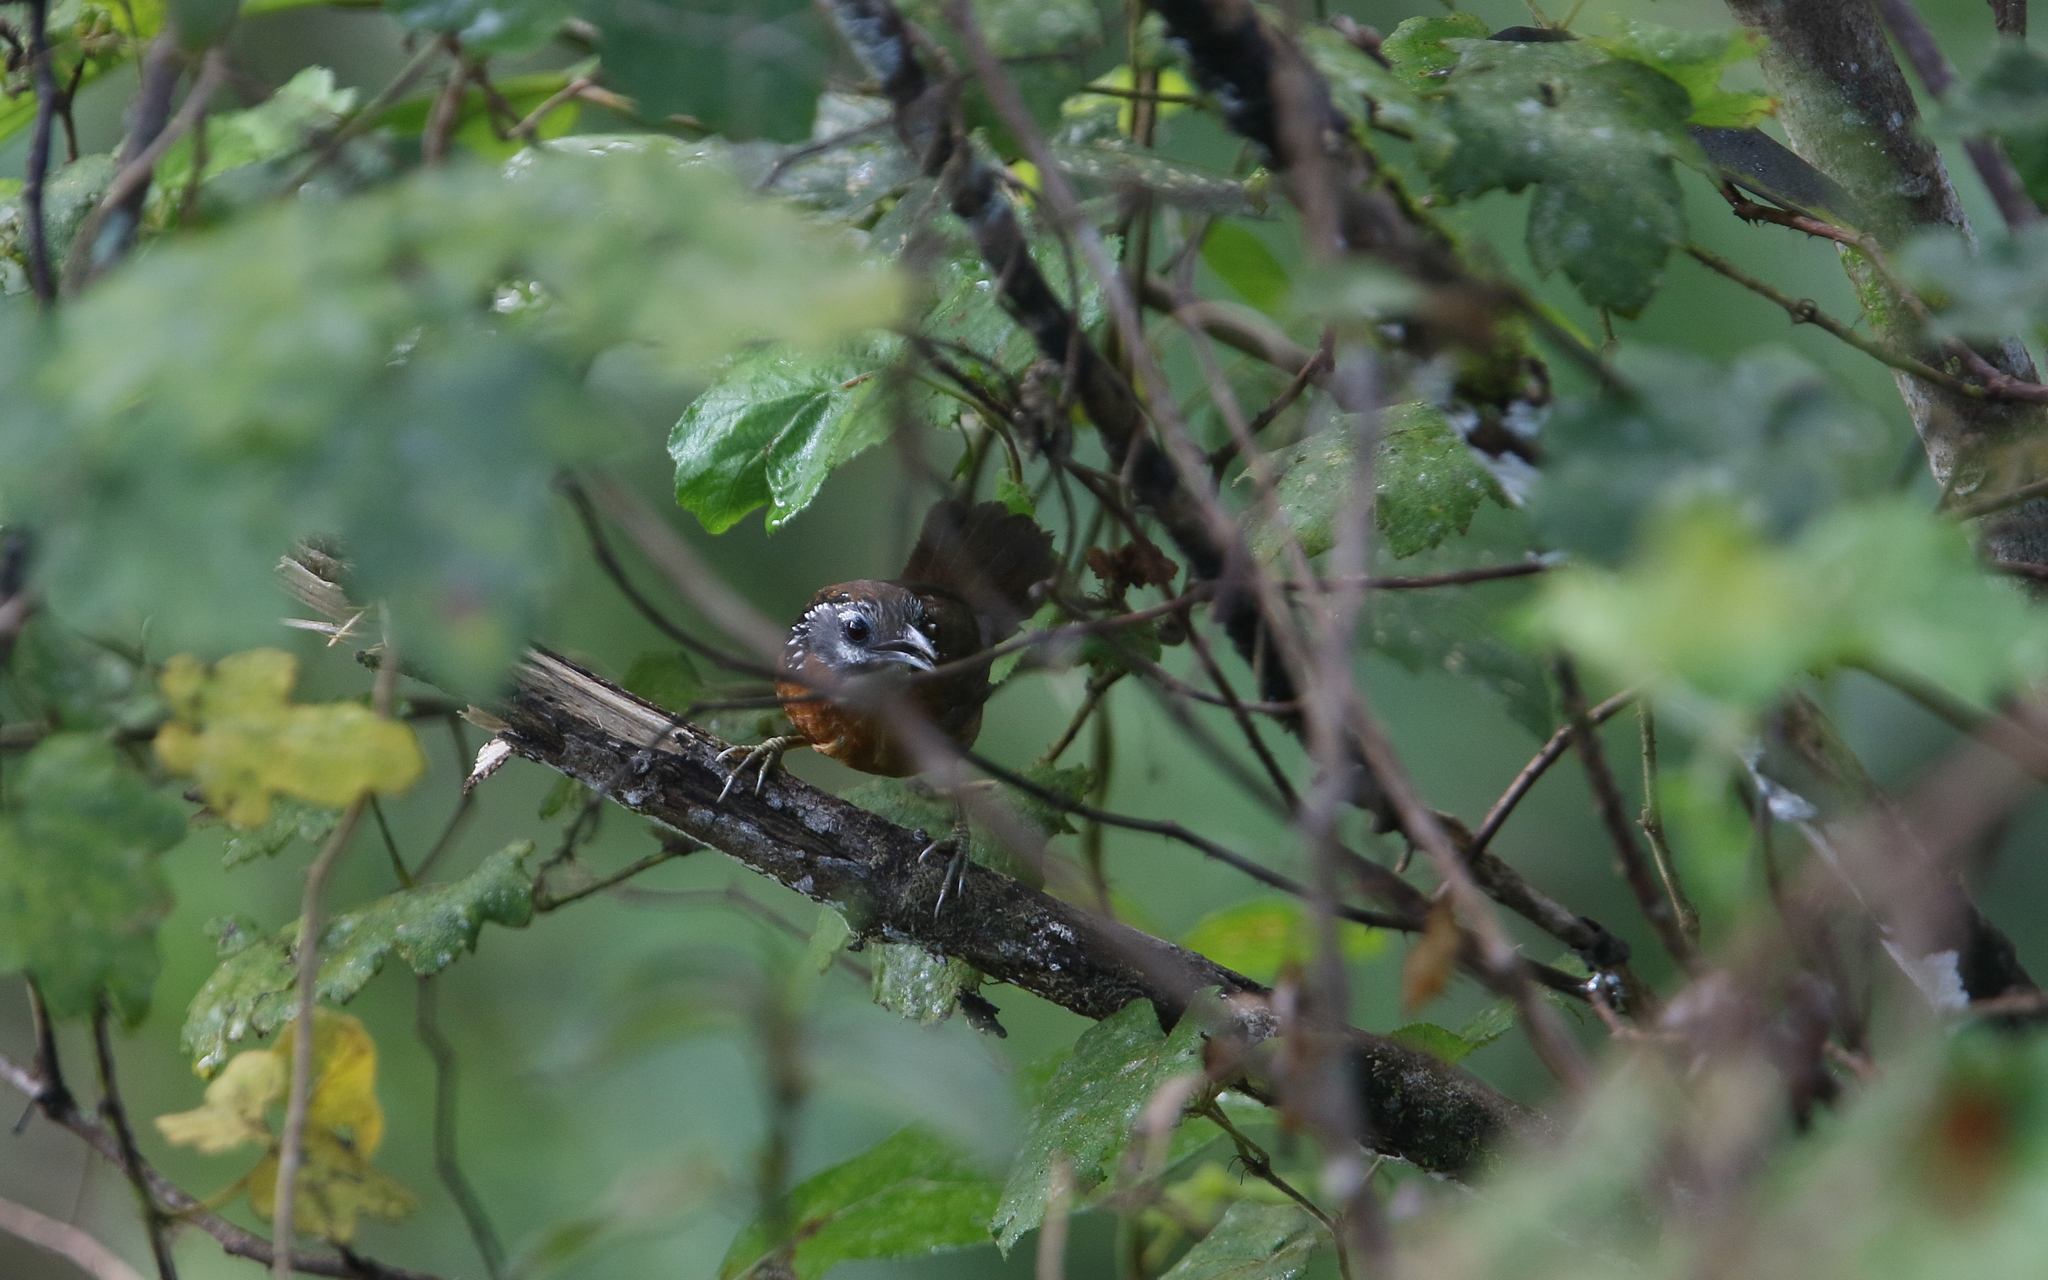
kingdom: Animalia
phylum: Chordata
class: Aves
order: Passeriformes
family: Timaliidae
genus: Stachyris
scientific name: Stachyris strialata
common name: Spot-necked babbler
